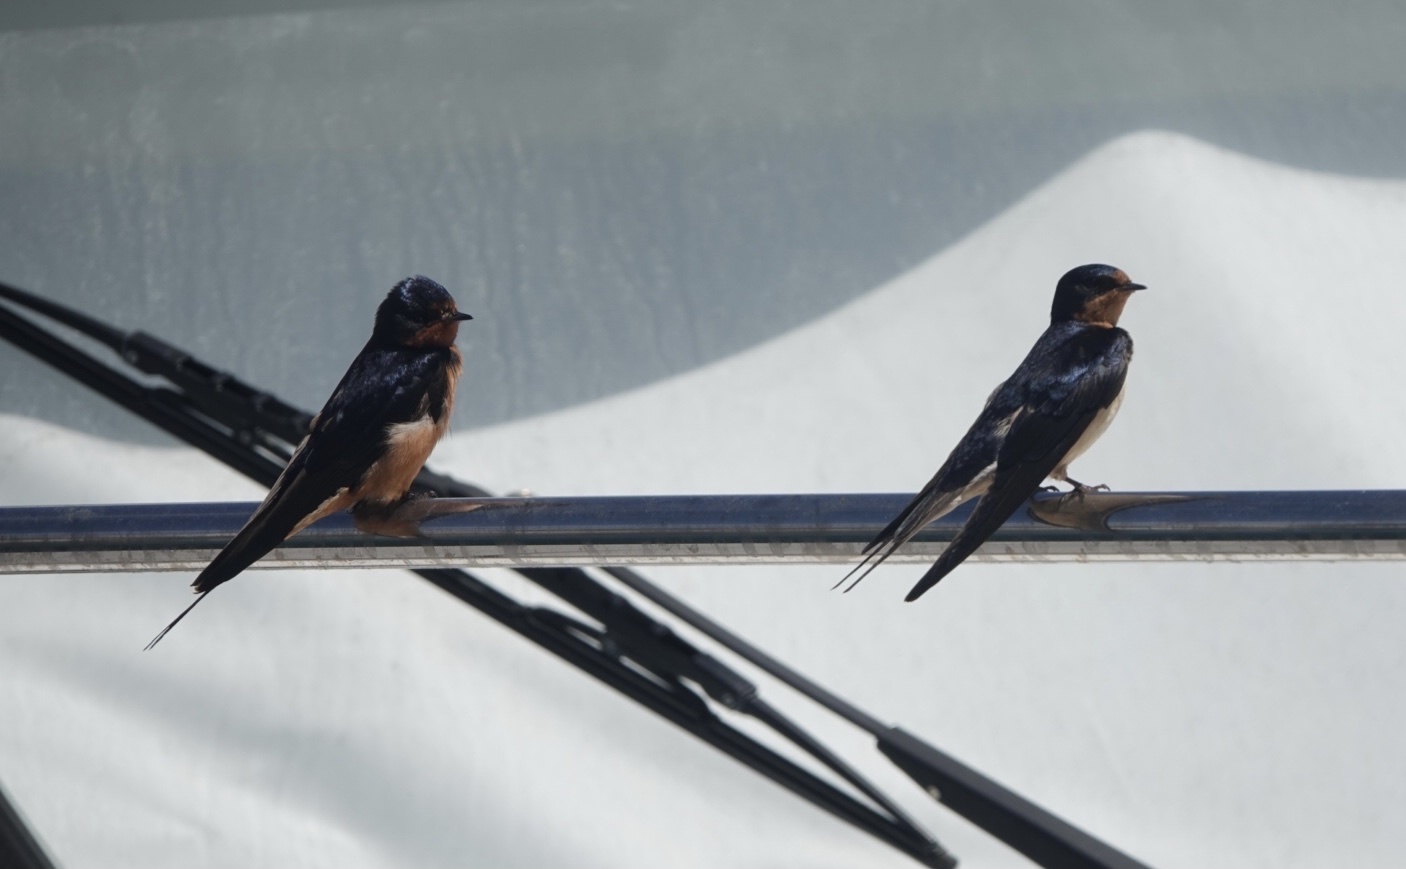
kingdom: Animalia
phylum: Chordata
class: Aves
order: Passeriformes
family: Hirundinidae
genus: Hirundo
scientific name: Hirundo rustica
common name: Barn swallow
